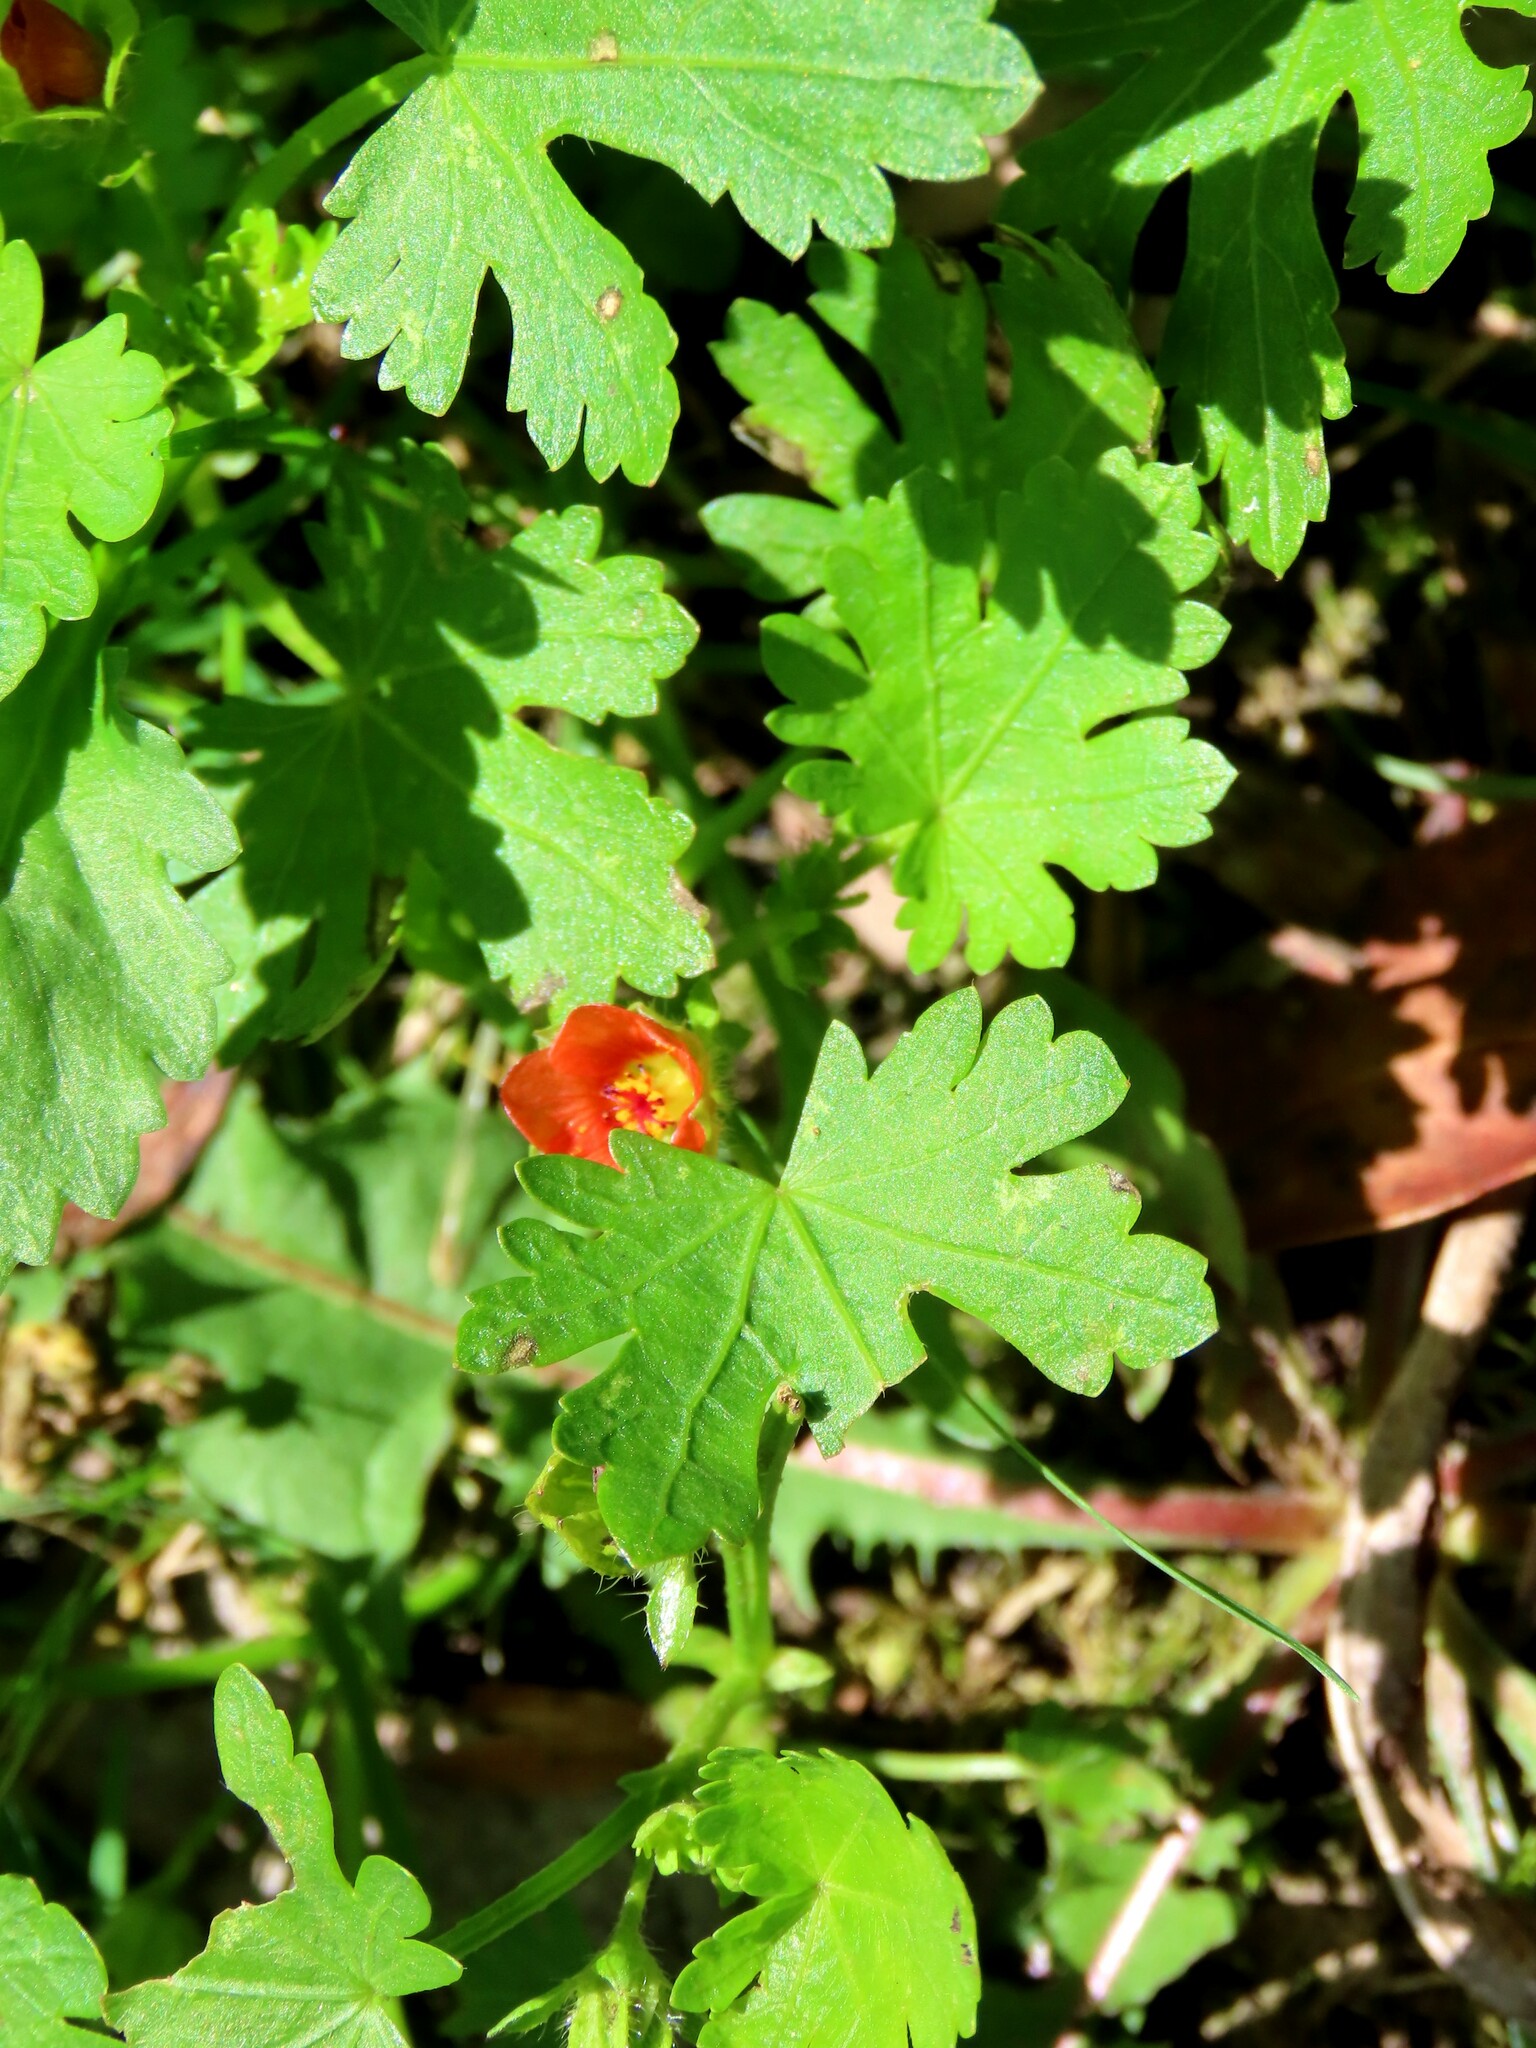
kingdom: Plantae
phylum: Tracheophyta
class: Magnoliopsida
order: Malvales
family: Malvaceae
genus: Modiola
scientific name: Modiola caroliniana
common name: Carolina bristlemallow
